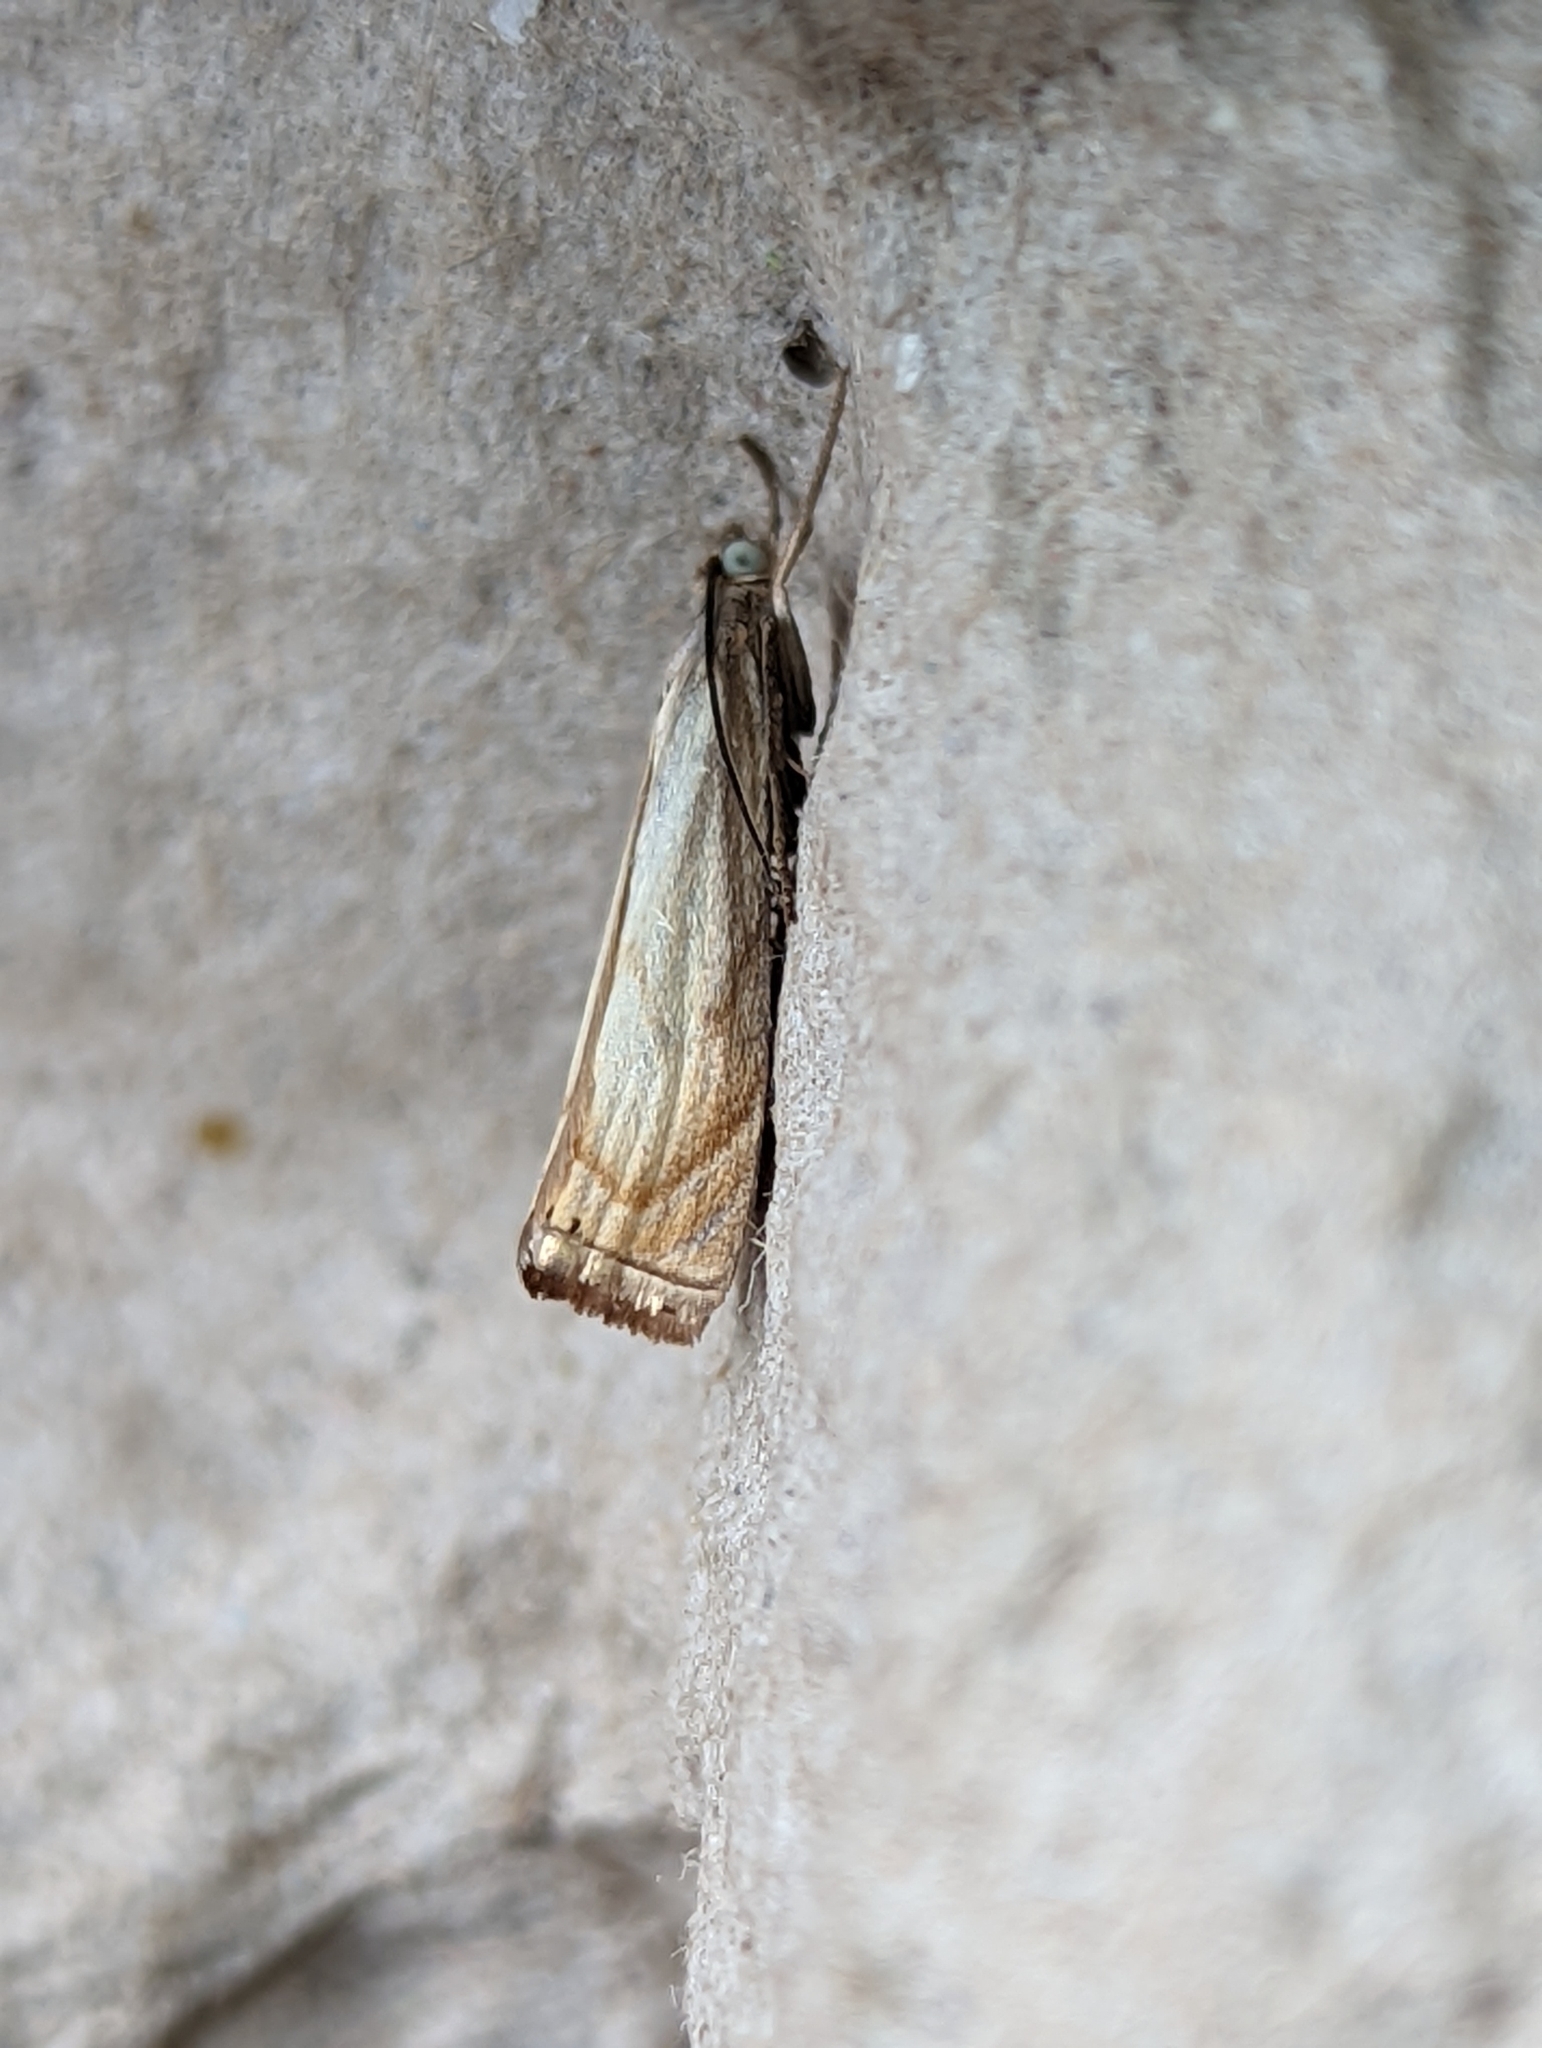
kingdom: Animalia
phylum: Arthropoda
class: Insecta
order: Lepidoptera
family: Crambidae
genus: Chrysoteuchia
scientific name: Chrysoteuchia culmella
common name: Garden grass-veneer
